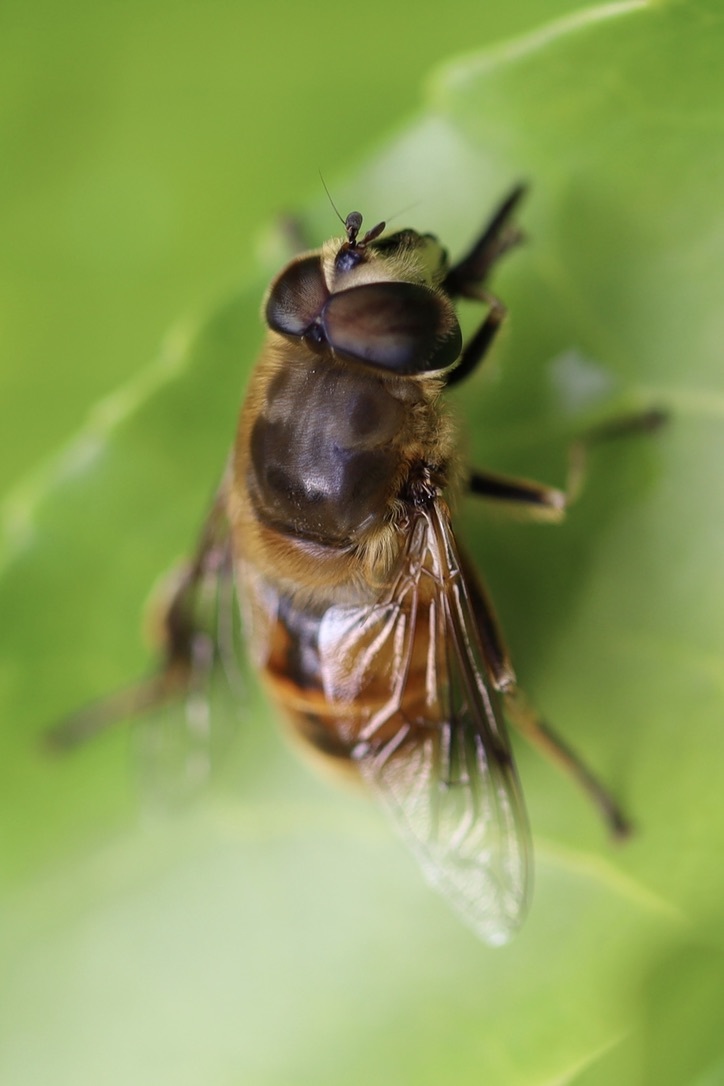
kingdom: Animalia
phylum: Arthropoda
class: Insecta
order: Diptera
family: Syrphidae
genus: Eristalis
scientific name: Eristalis tenax
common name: Drone fly
